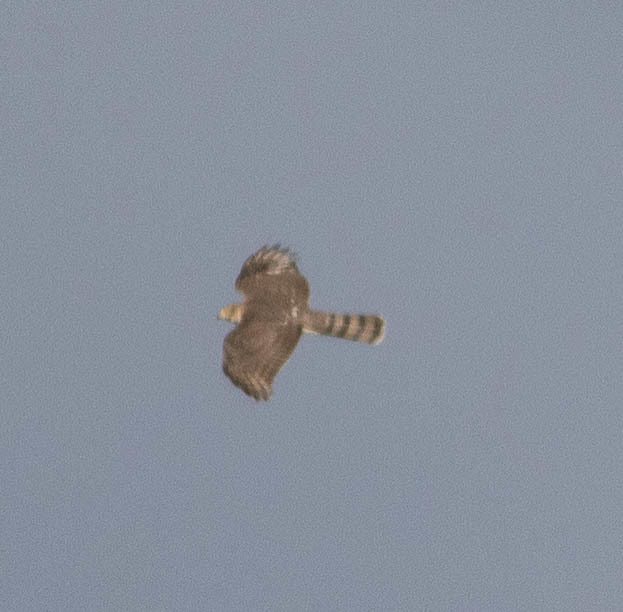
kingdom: Animalia
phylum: Chordata
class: Aves
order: Accipitriformes
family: Accipitridae
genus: Accipiter
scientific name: Accipiter cooperii
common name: Cooper's hawk
